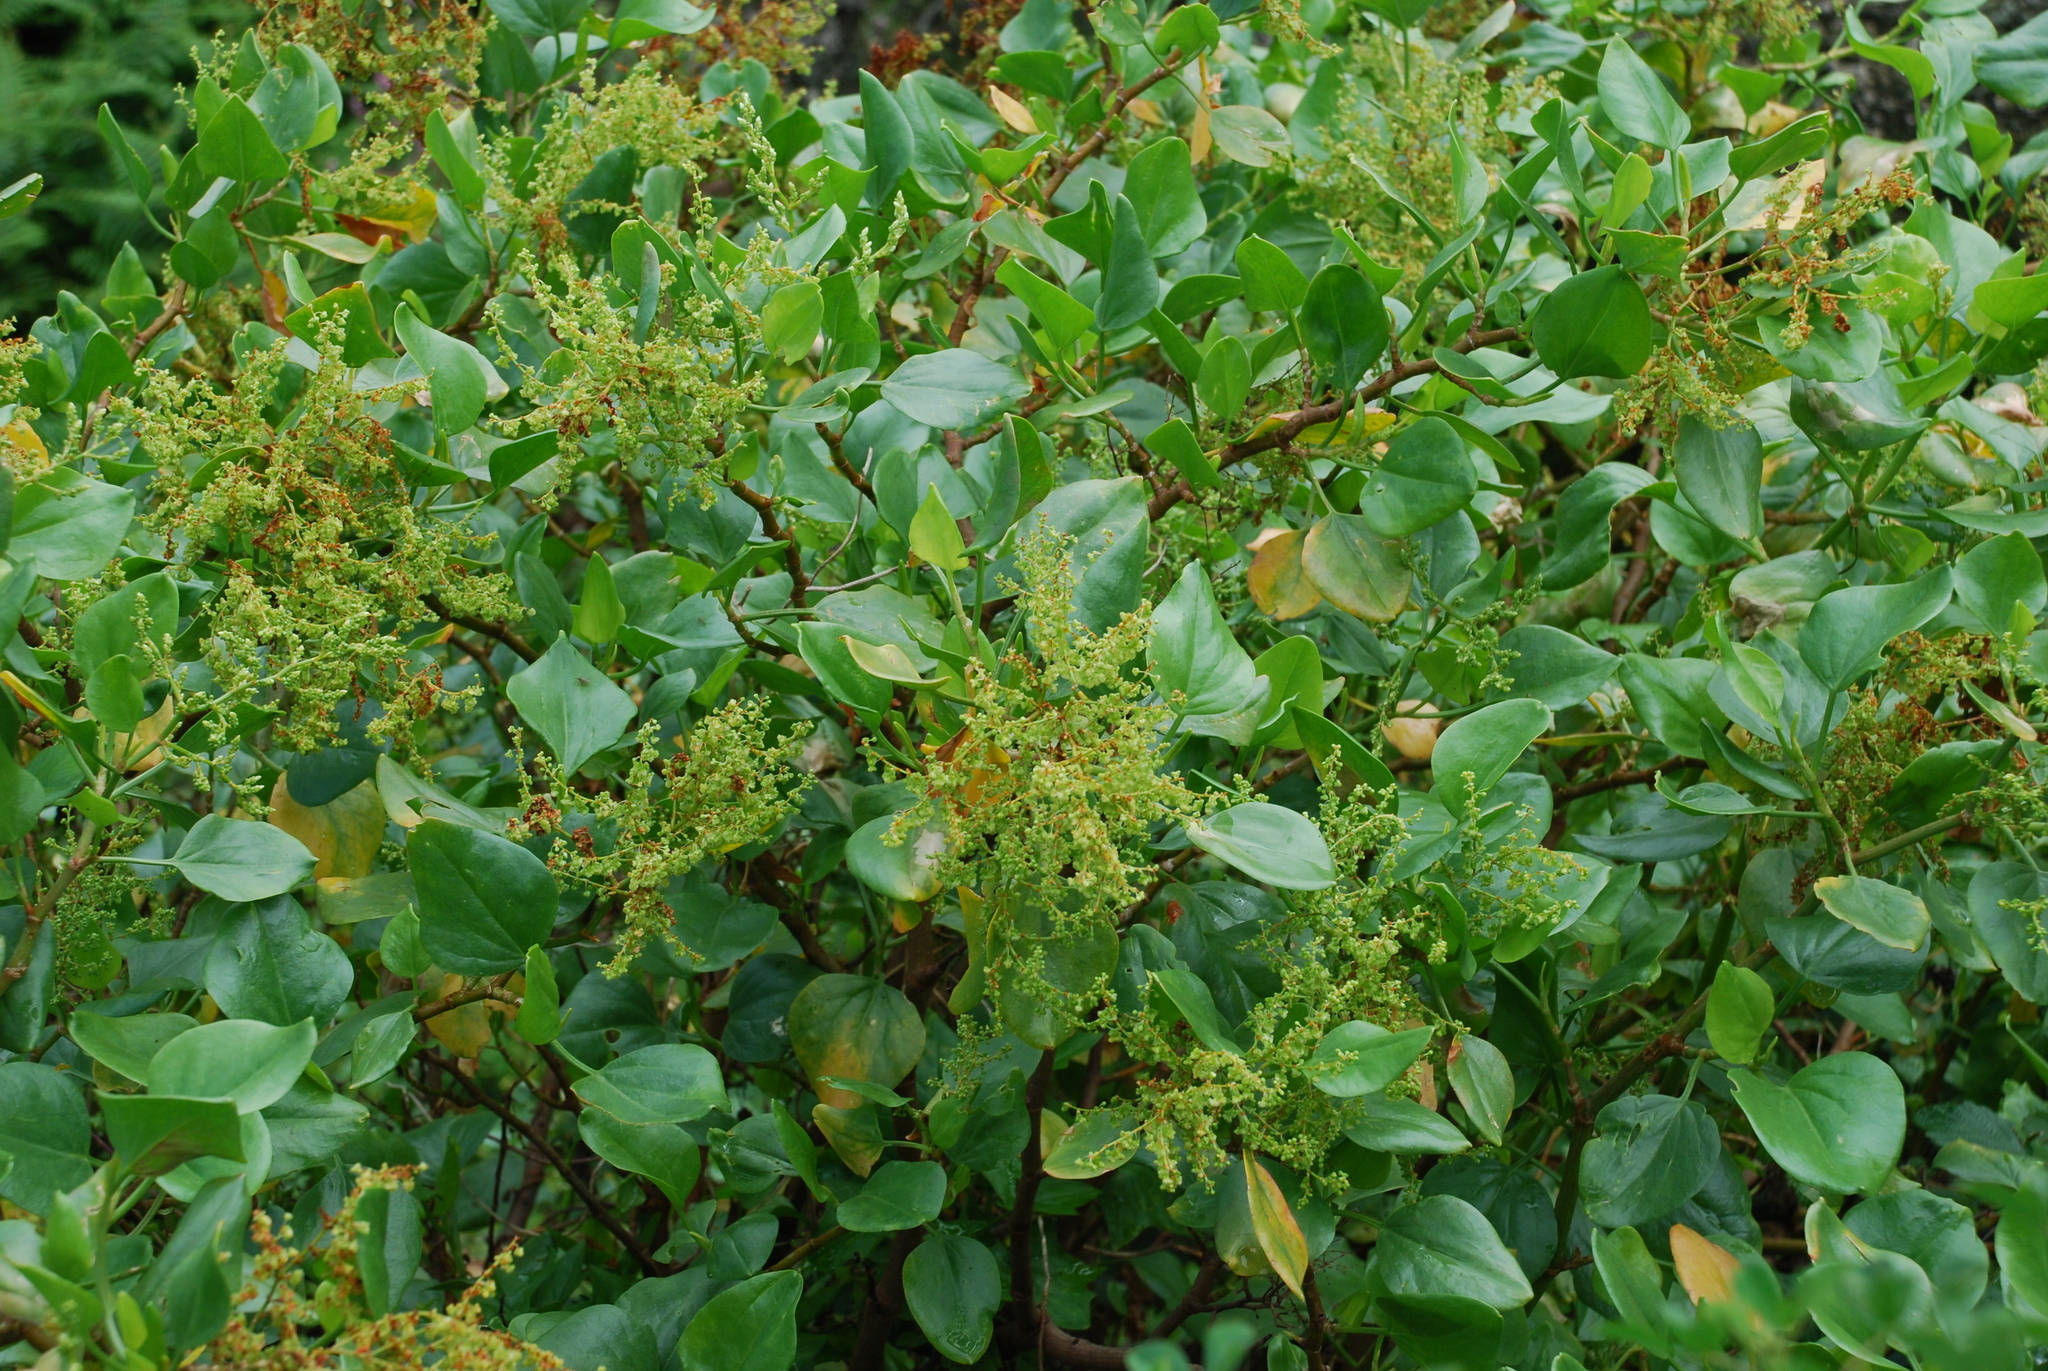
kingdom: Plantae
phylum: Tracheophyta
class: Magnoliopsida
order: Caryophyllales
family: Polygonaceae
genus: Rumex
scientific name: Rumex lunaria
